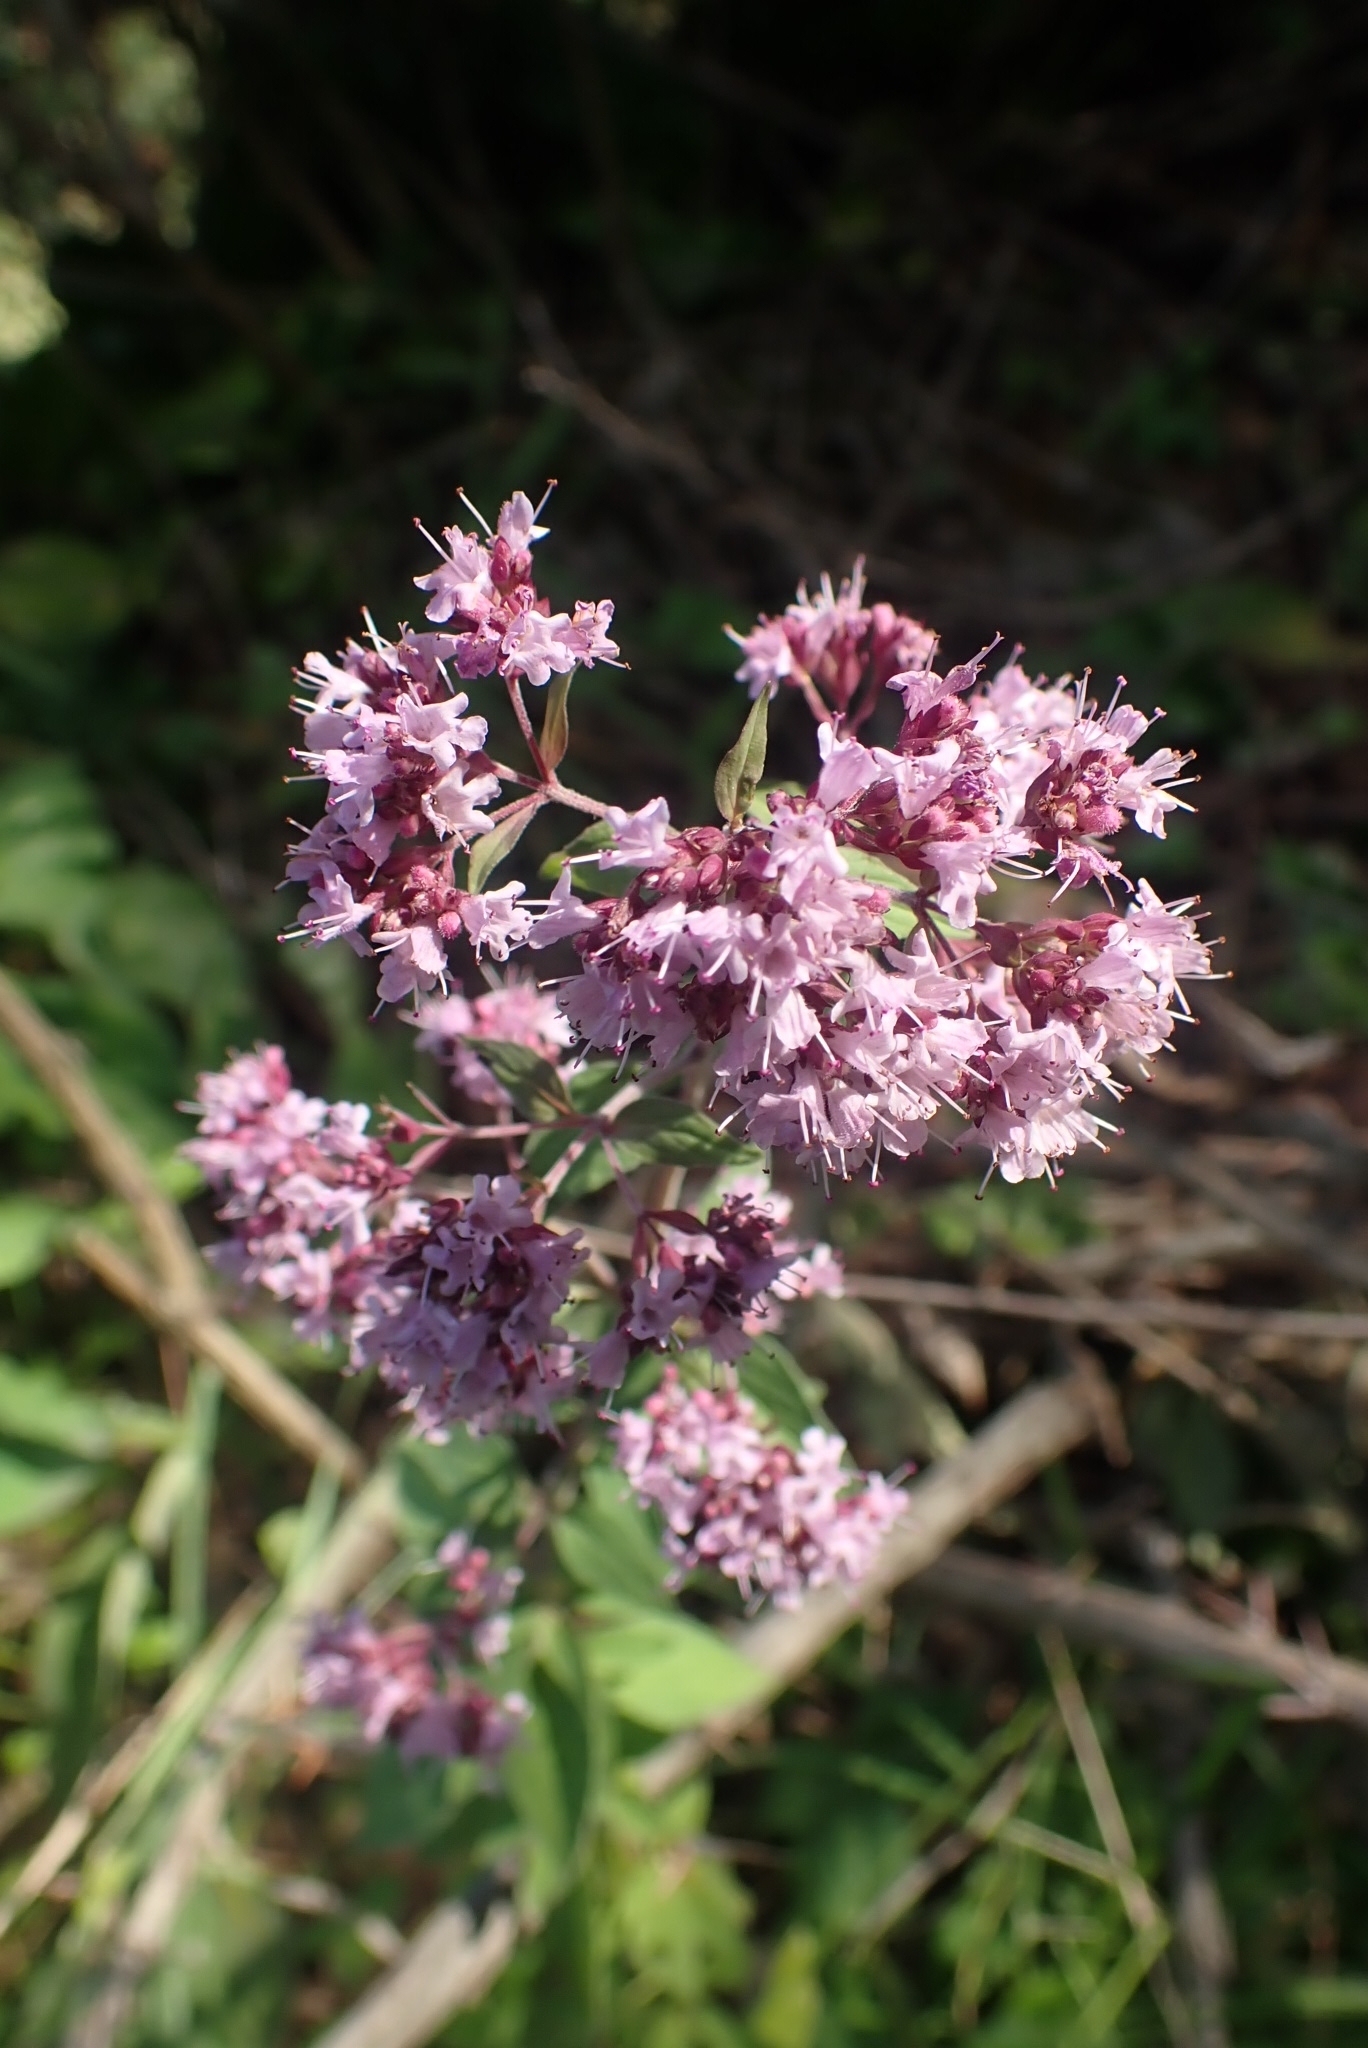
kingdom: Plantae
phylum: Tracheophyta
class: Magnoliopsida
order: Lamiales
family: Lamiaceae
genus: Origanum
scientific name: Origanum vulgare
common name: Wild marjoram
